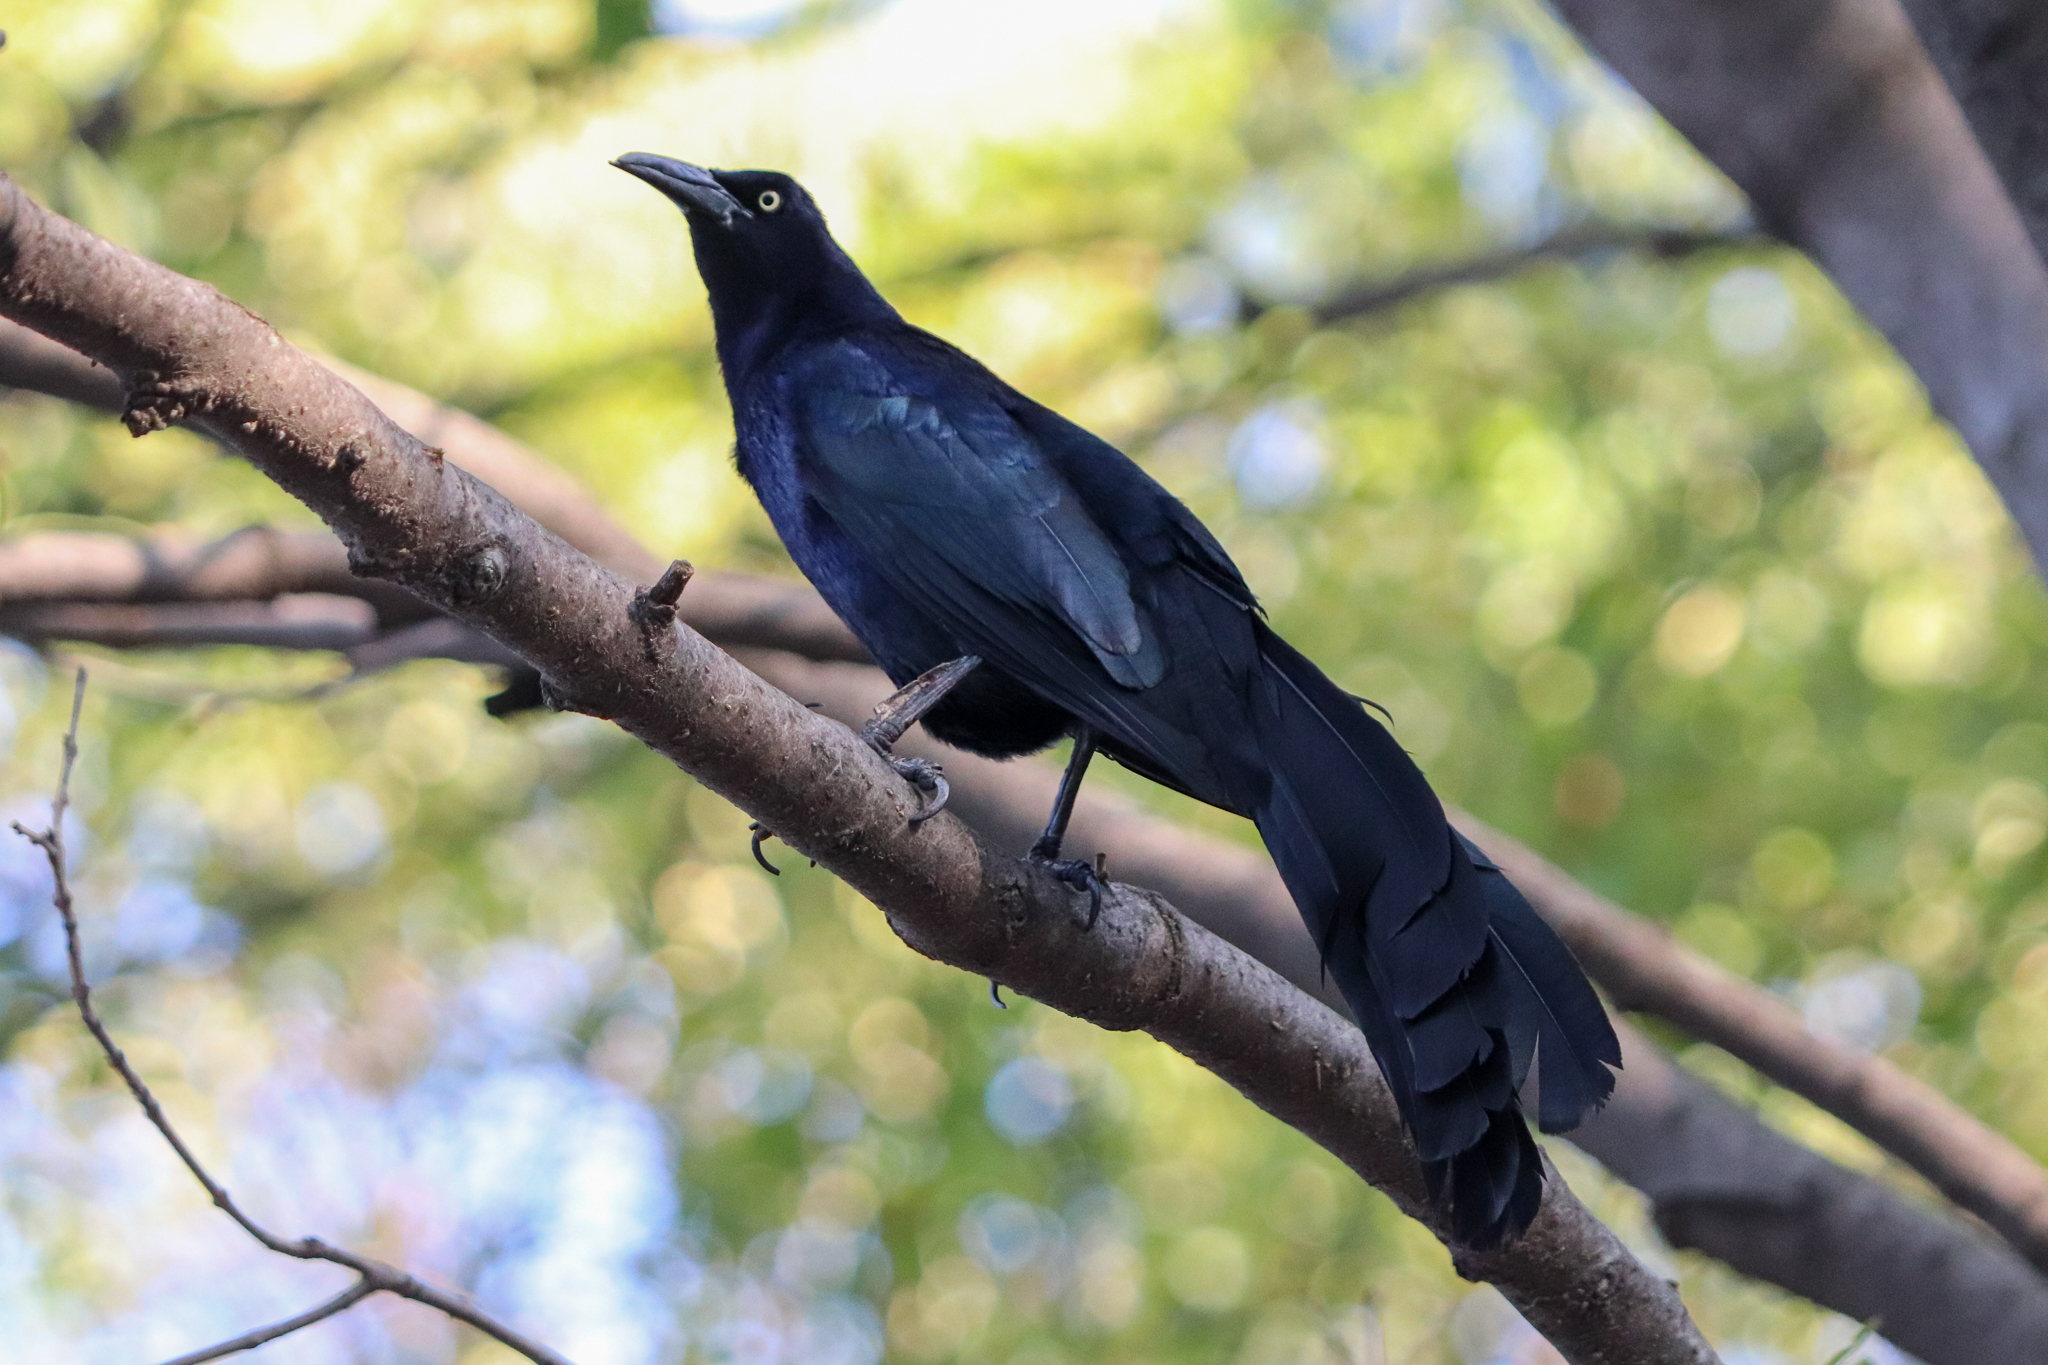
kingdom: Animalia
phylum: Chordata
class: Aves
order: Passeriformes
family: Icteridae
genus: Quiscalus
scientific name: Quiscalus mexicanus
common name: Great-tailed grackle
